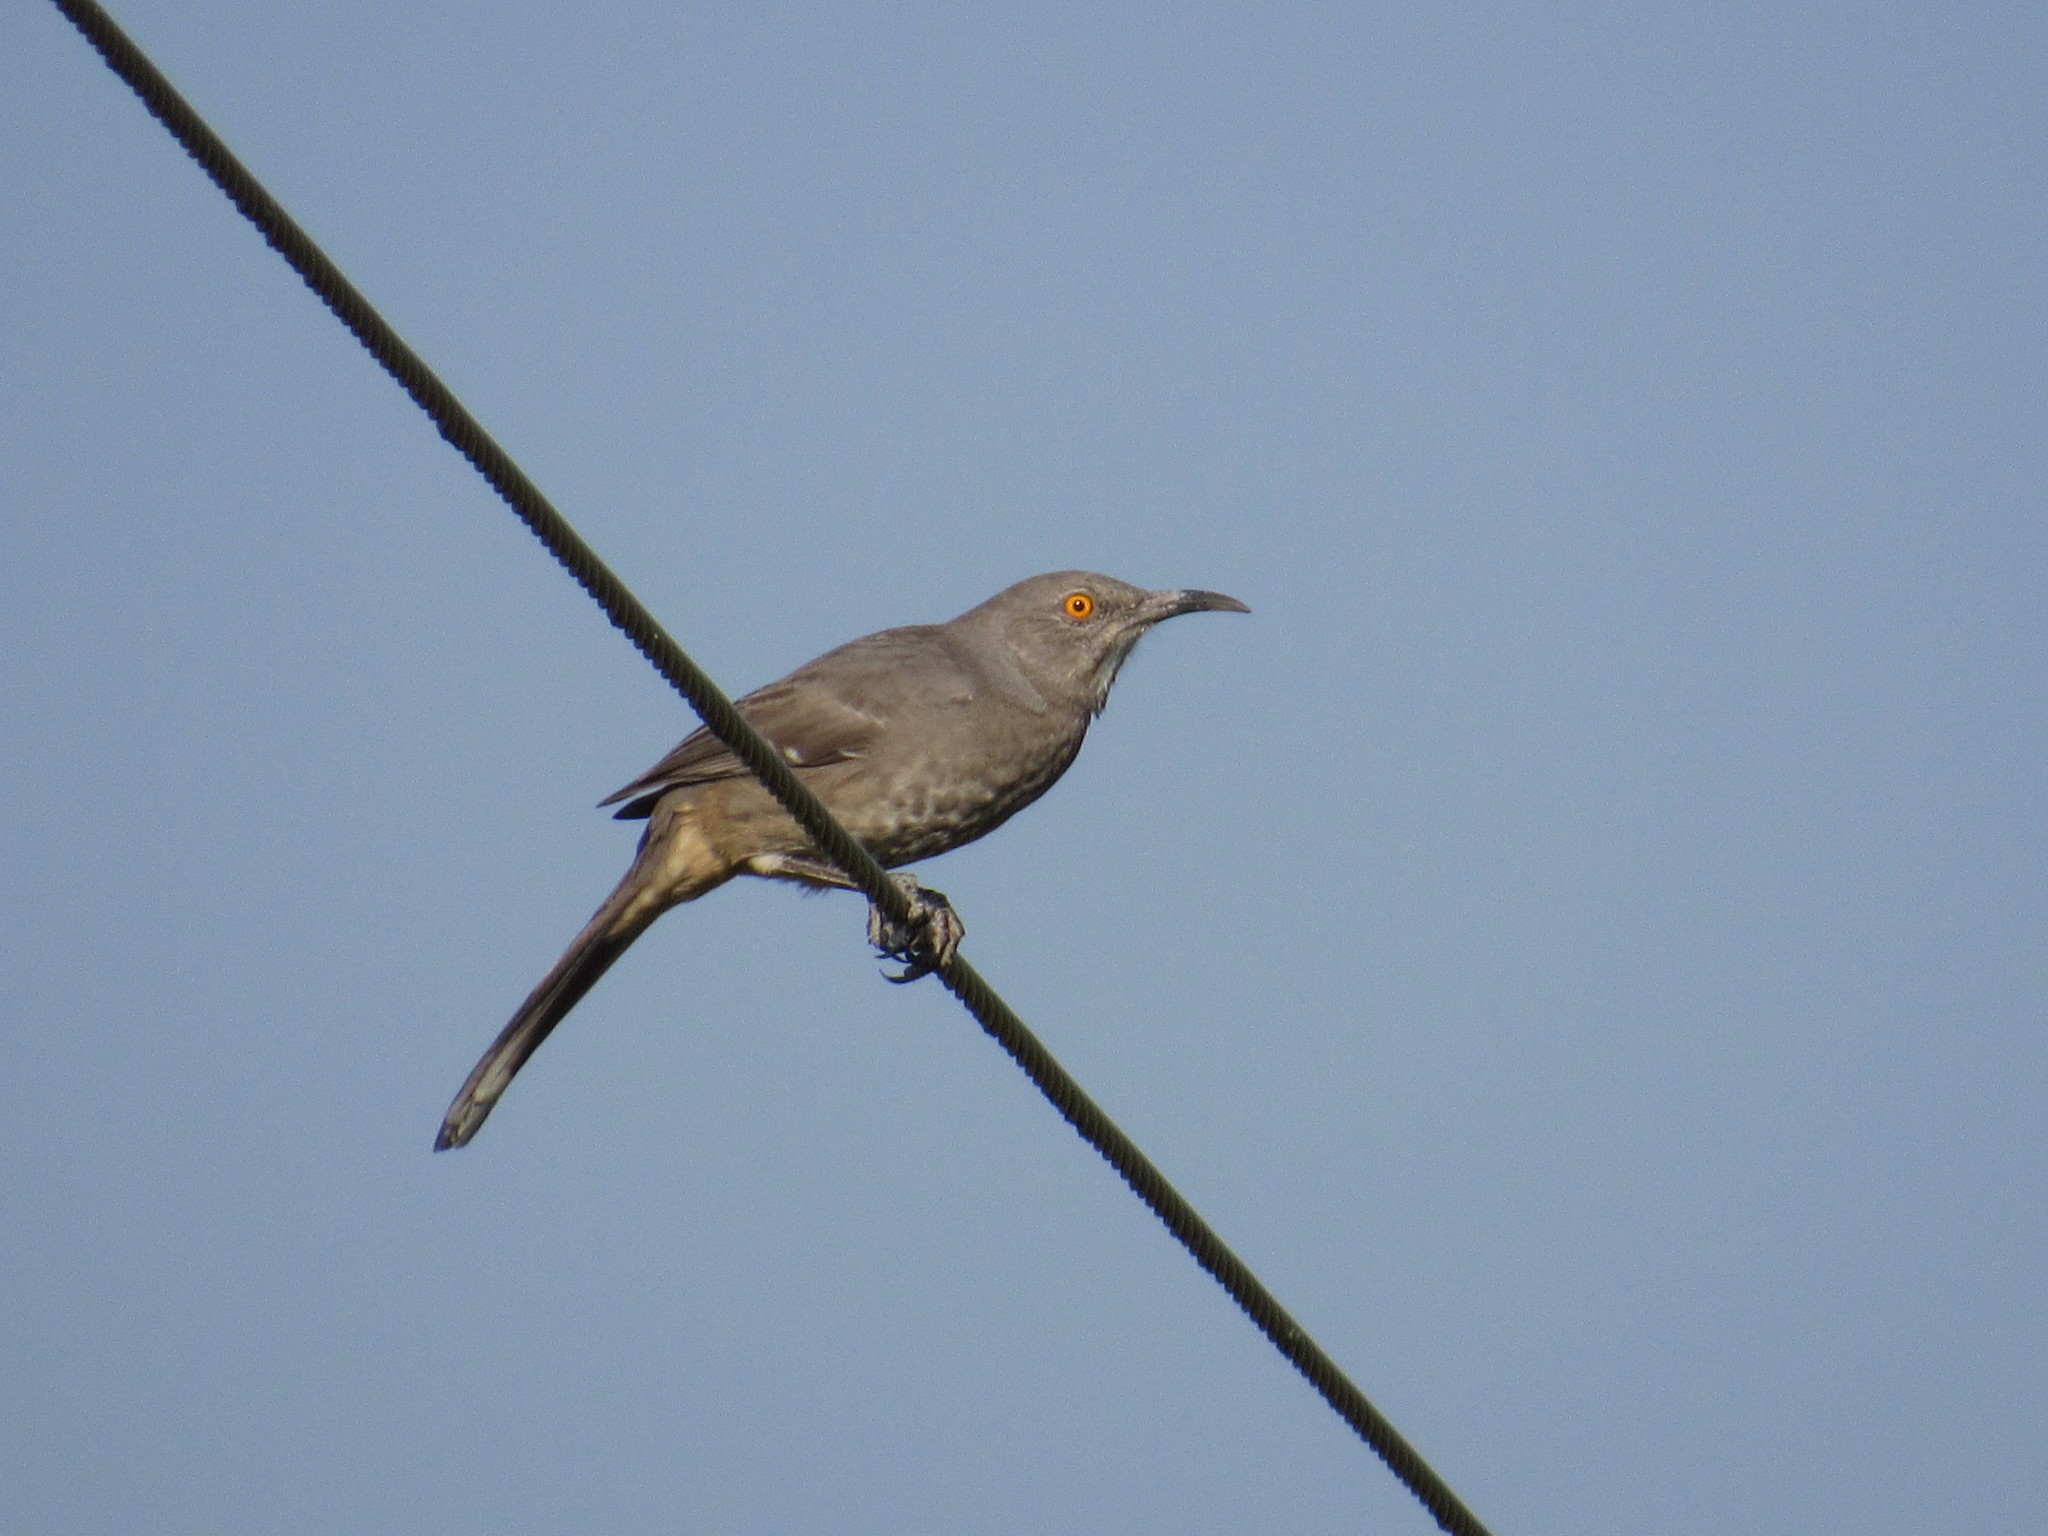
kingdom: Animalia
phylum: Chordata
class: Aves
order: Passeriformes
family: Mimidae
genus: Toxostoma
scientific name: Toxostoma curvirostre
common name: Curve-billed thrasher
